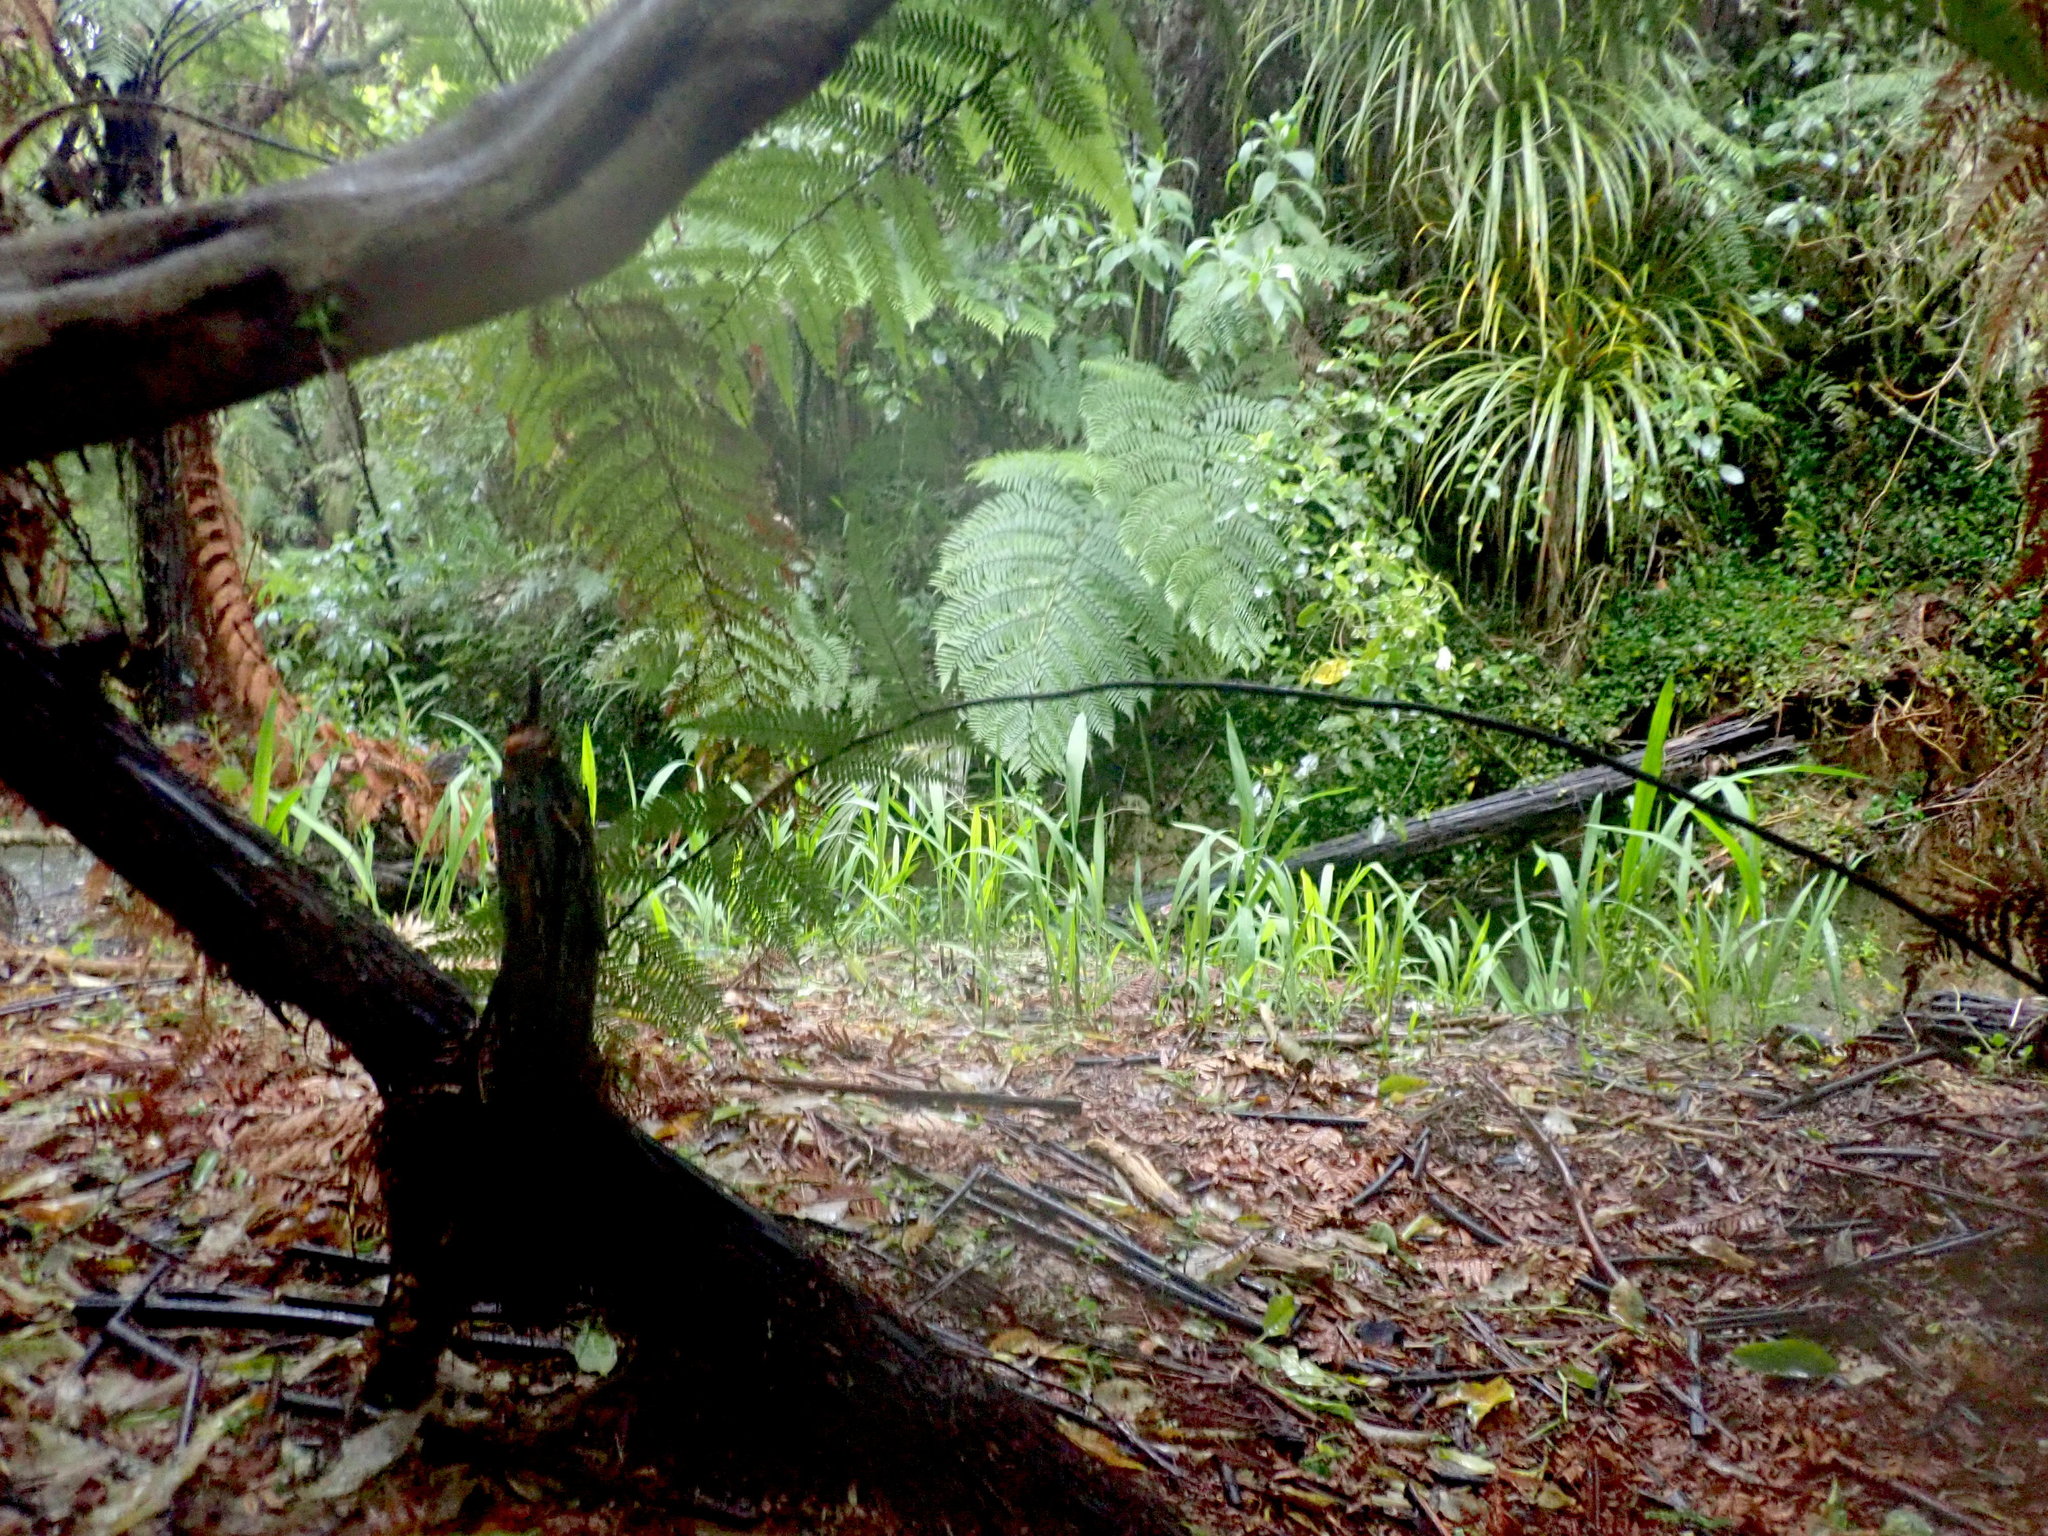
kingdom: Plantae
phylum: Tracheophyta
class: Liliopsida
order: Asparagales
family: Iridaceae
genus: Crocosmia
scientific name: Crocosmia crocosmiiflora
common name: Montbretia
